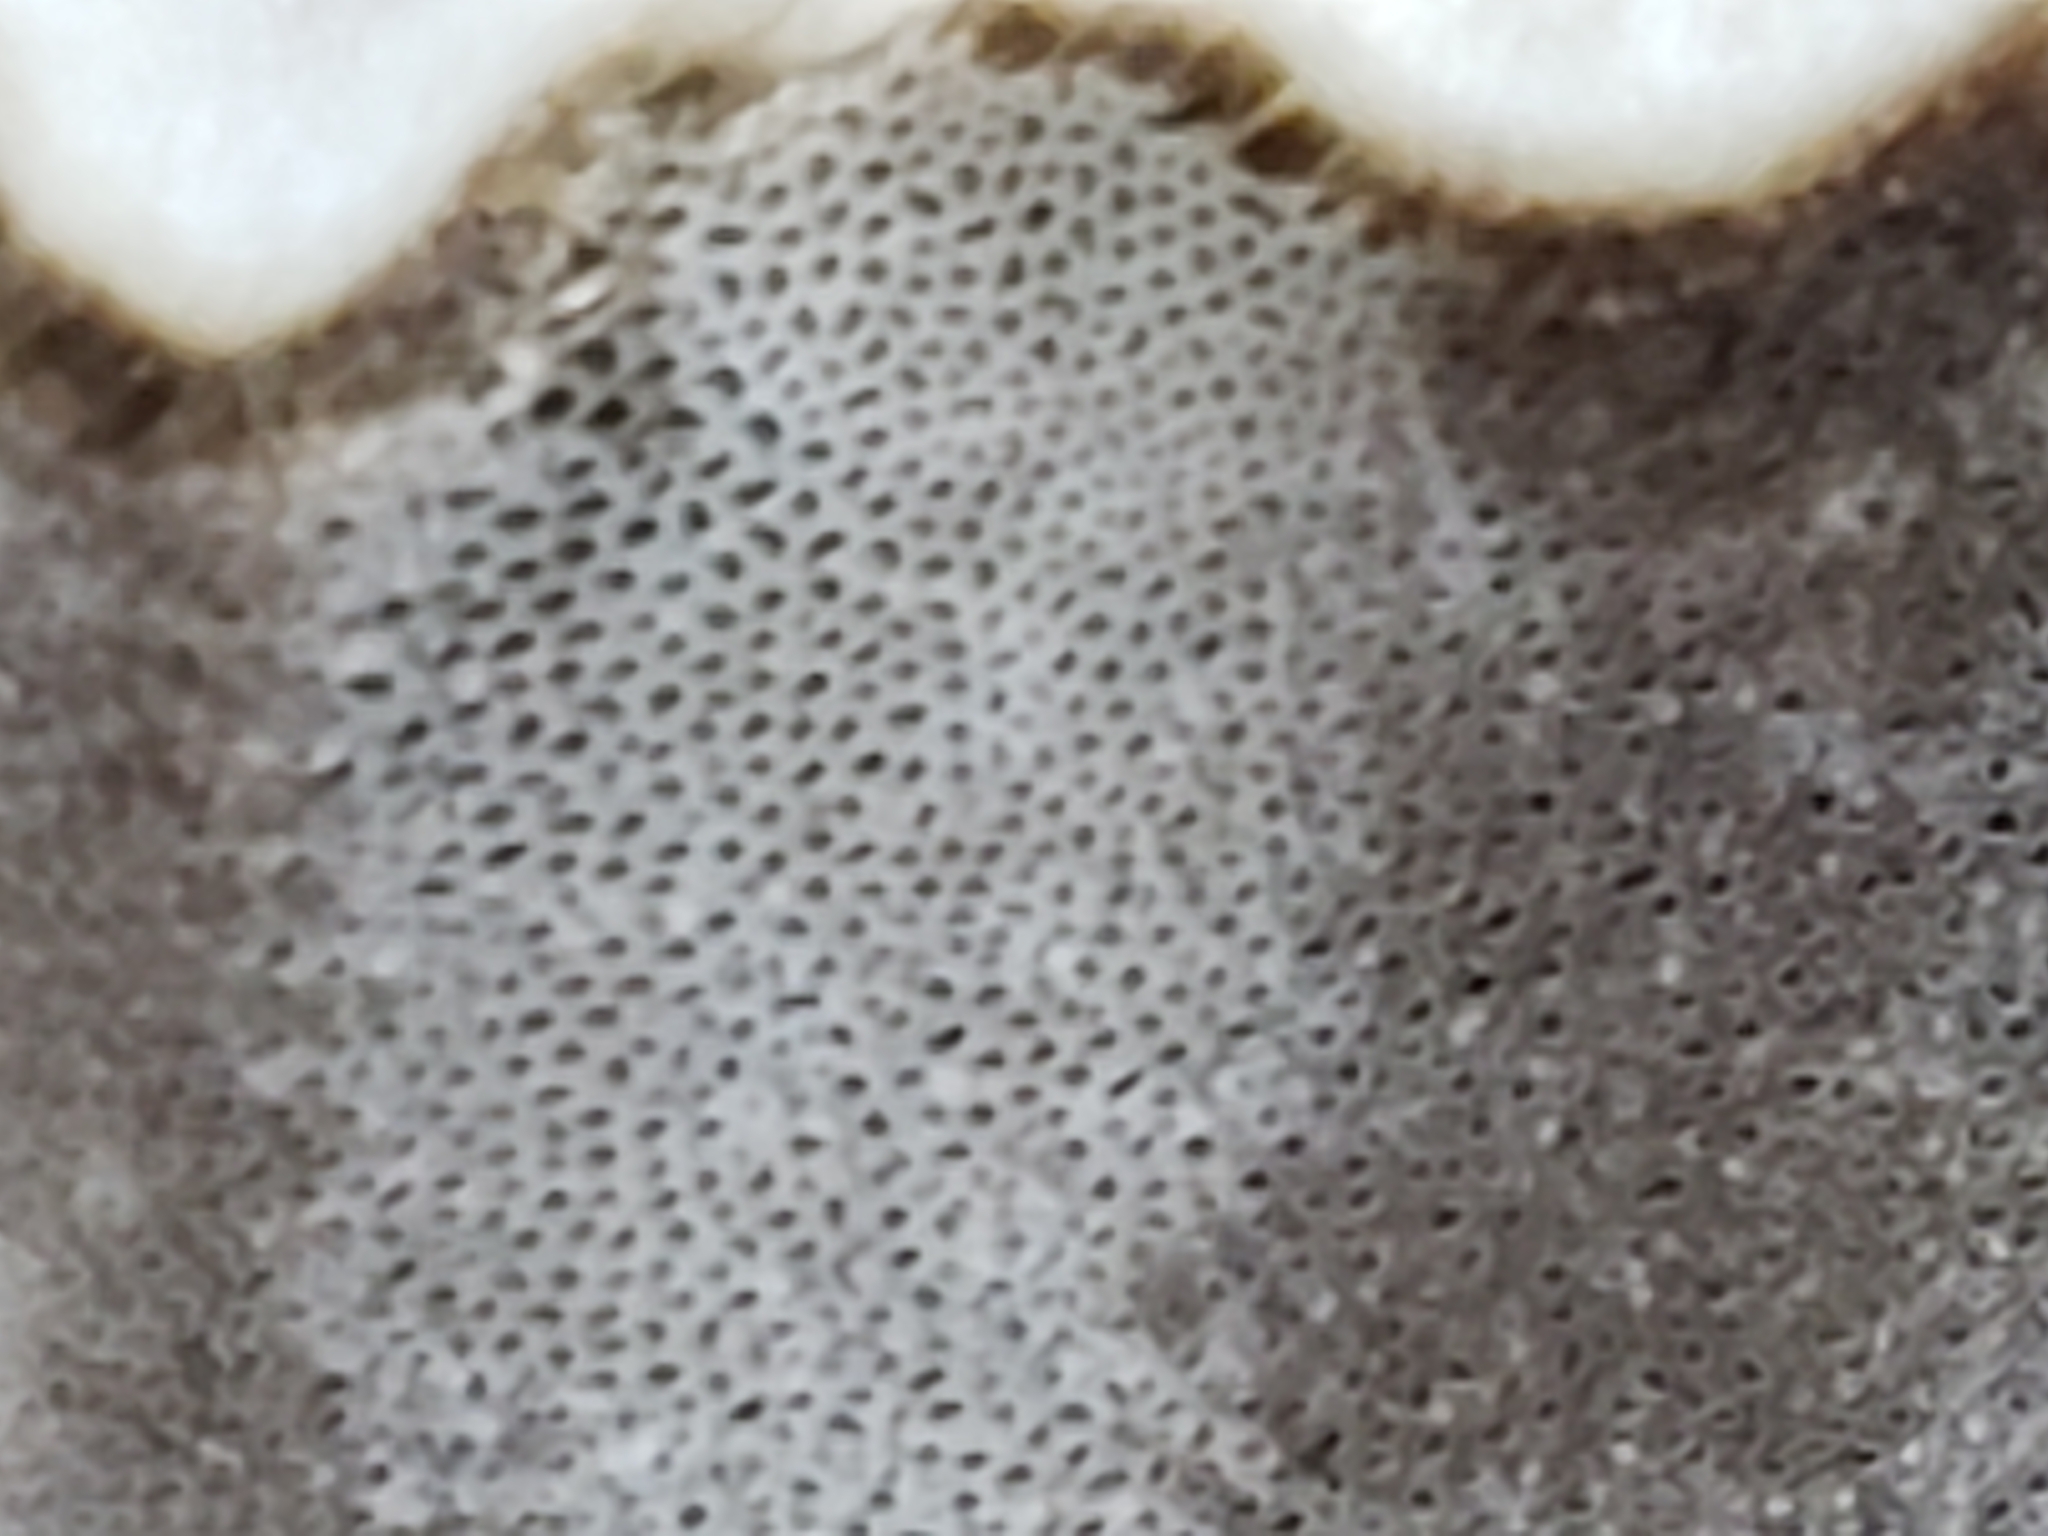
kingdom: Fungi
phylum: Basidiomycota
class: Agaricomycetes
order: Polyporales
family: Phanerochaetaceae
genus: Bjerkandera
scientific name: Bjerkandera adusta
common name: Smoky bracket
